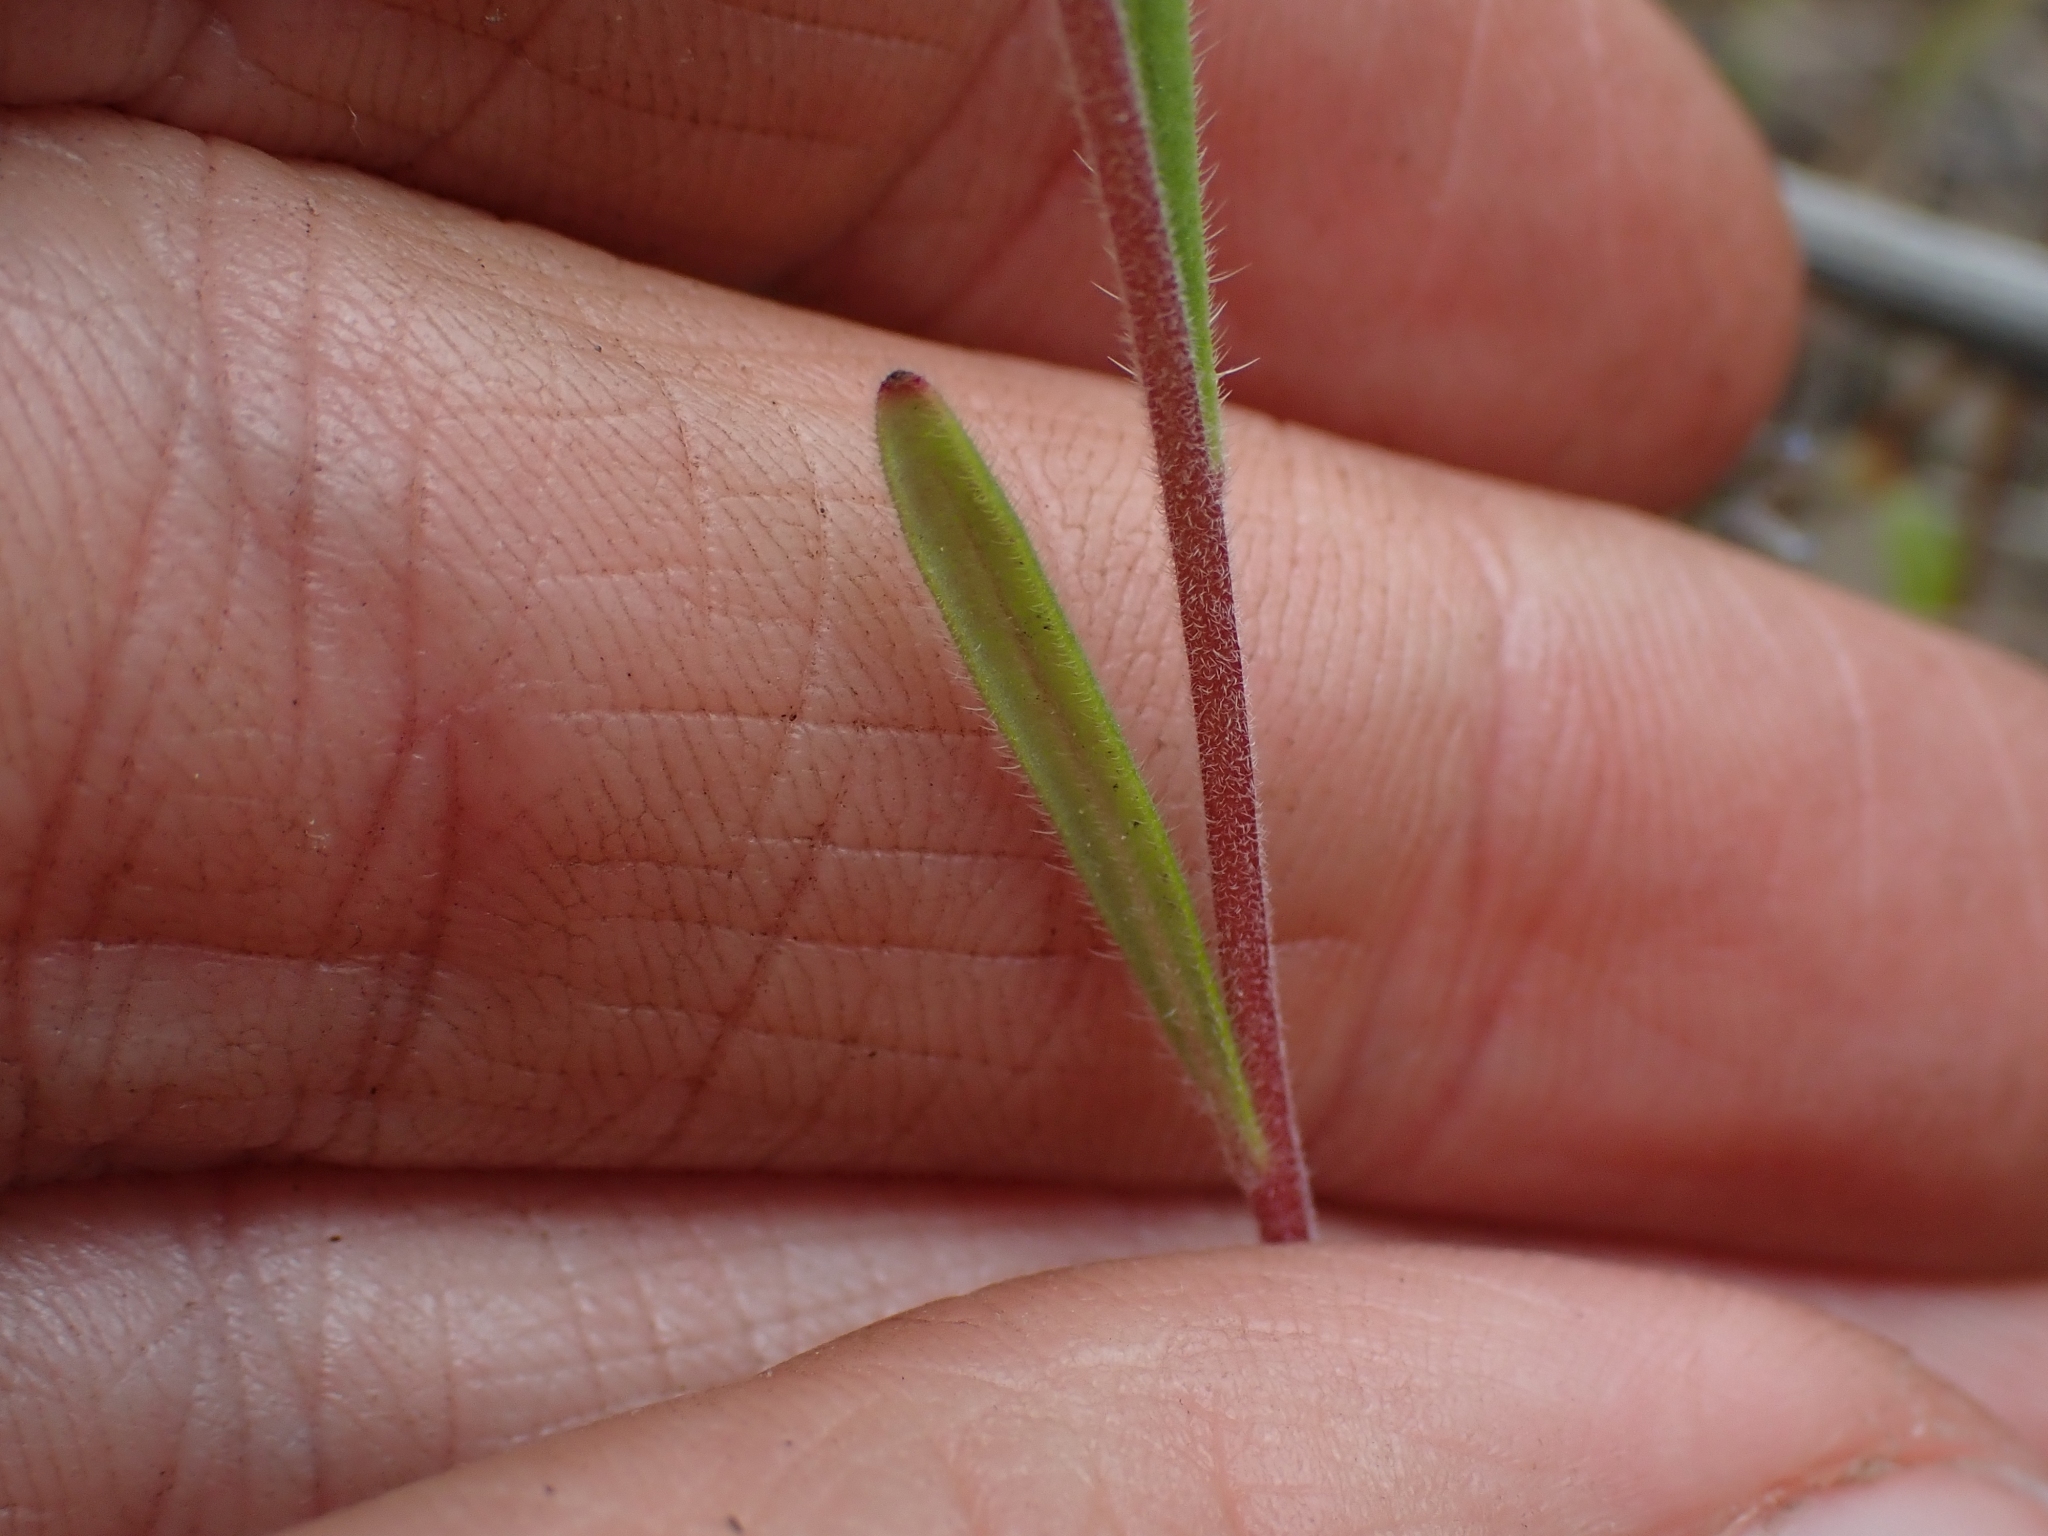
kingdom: Plantae
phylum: Tracheophyta
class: Magnoliopsida
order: Boraginales
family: Hydrophyllaceae
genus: Phacelia
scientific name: Phacelia linearis
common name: Linear-leaved phacelia
